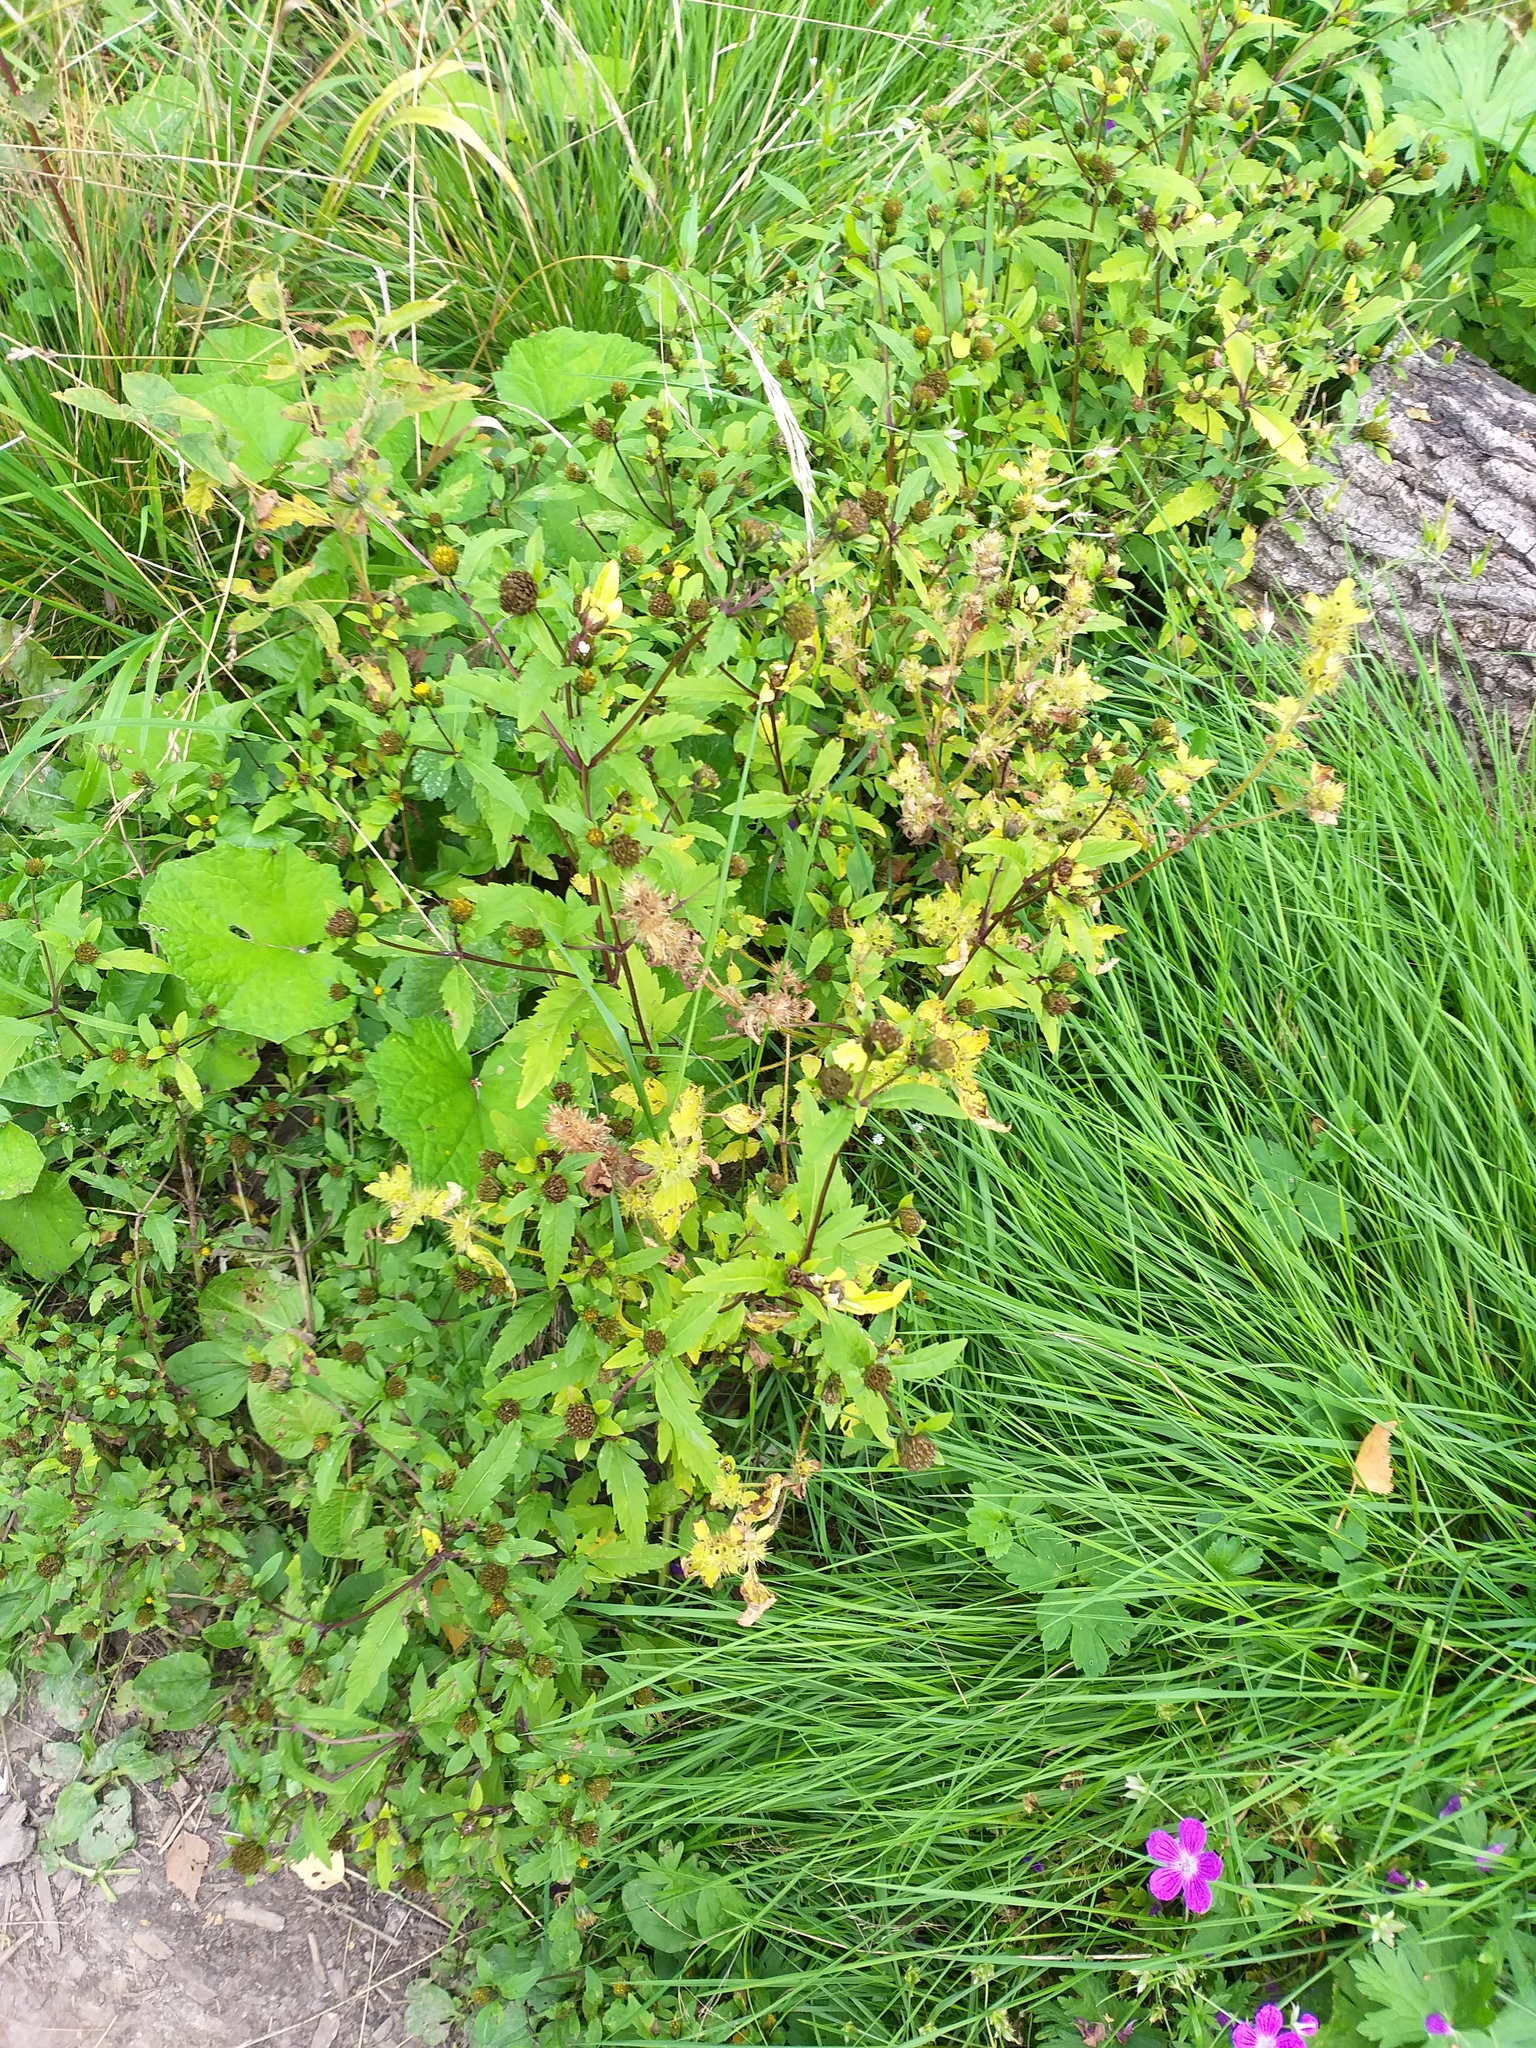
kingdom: Plantae
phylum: Tracheophyta
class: Magnoliopsida
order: Asterales
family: Asteraceae
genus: Bidens
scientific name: Bidens tripartita
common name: Trifid bur-marigold
